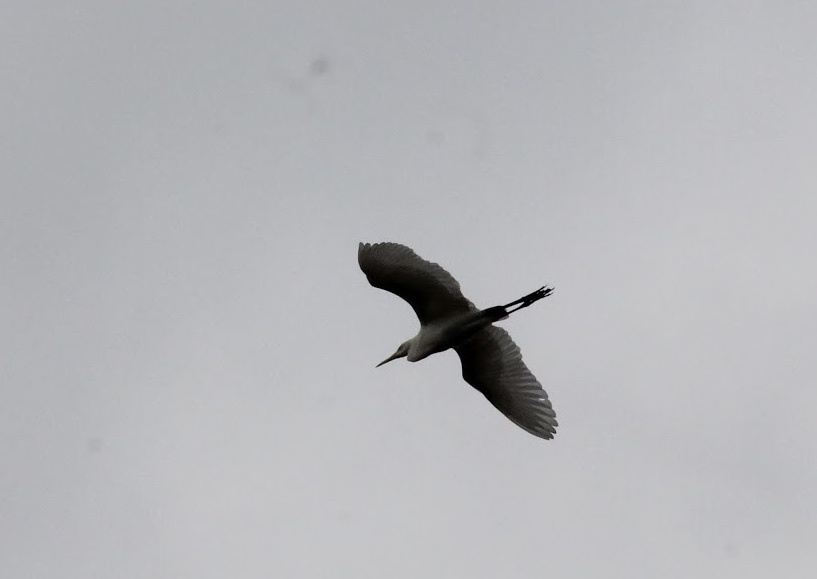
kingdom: Animalia
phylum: Chordata
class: Aves
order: Pelecaniformes
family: Ardeidae
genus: Ardea
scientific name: Ardea alba
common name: Great egret
